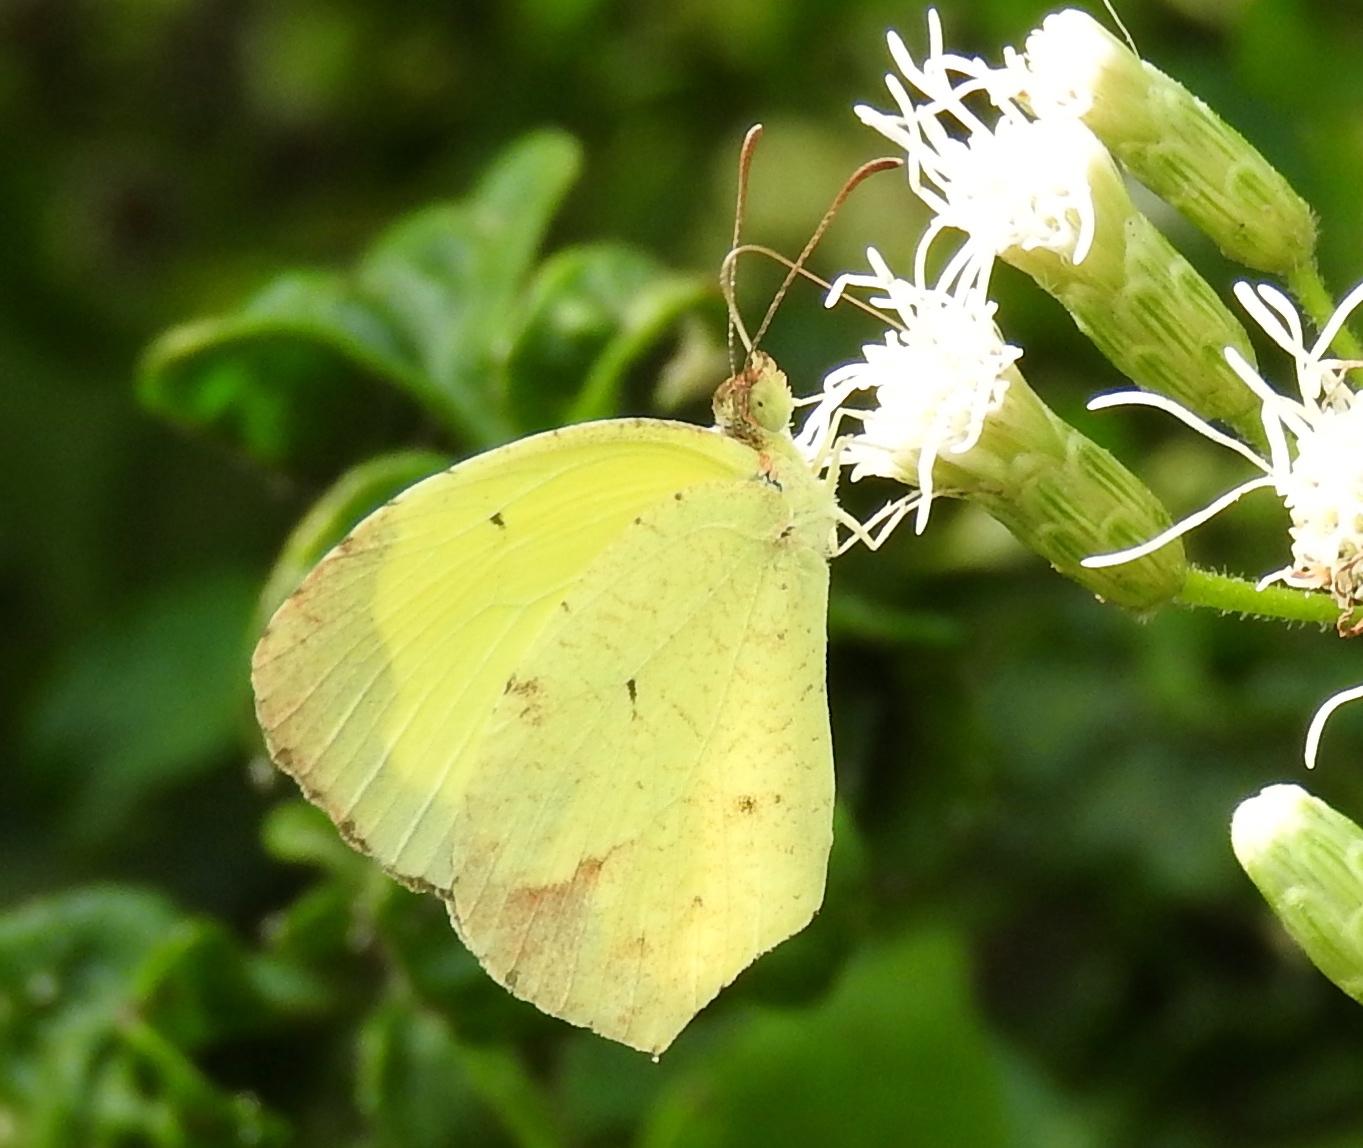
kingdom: Animalia
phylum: Arthropoda
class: Insecta
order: Lepidoptera
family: Pieridae
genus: Abaeis
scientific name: Abaeis boisduvaliana
